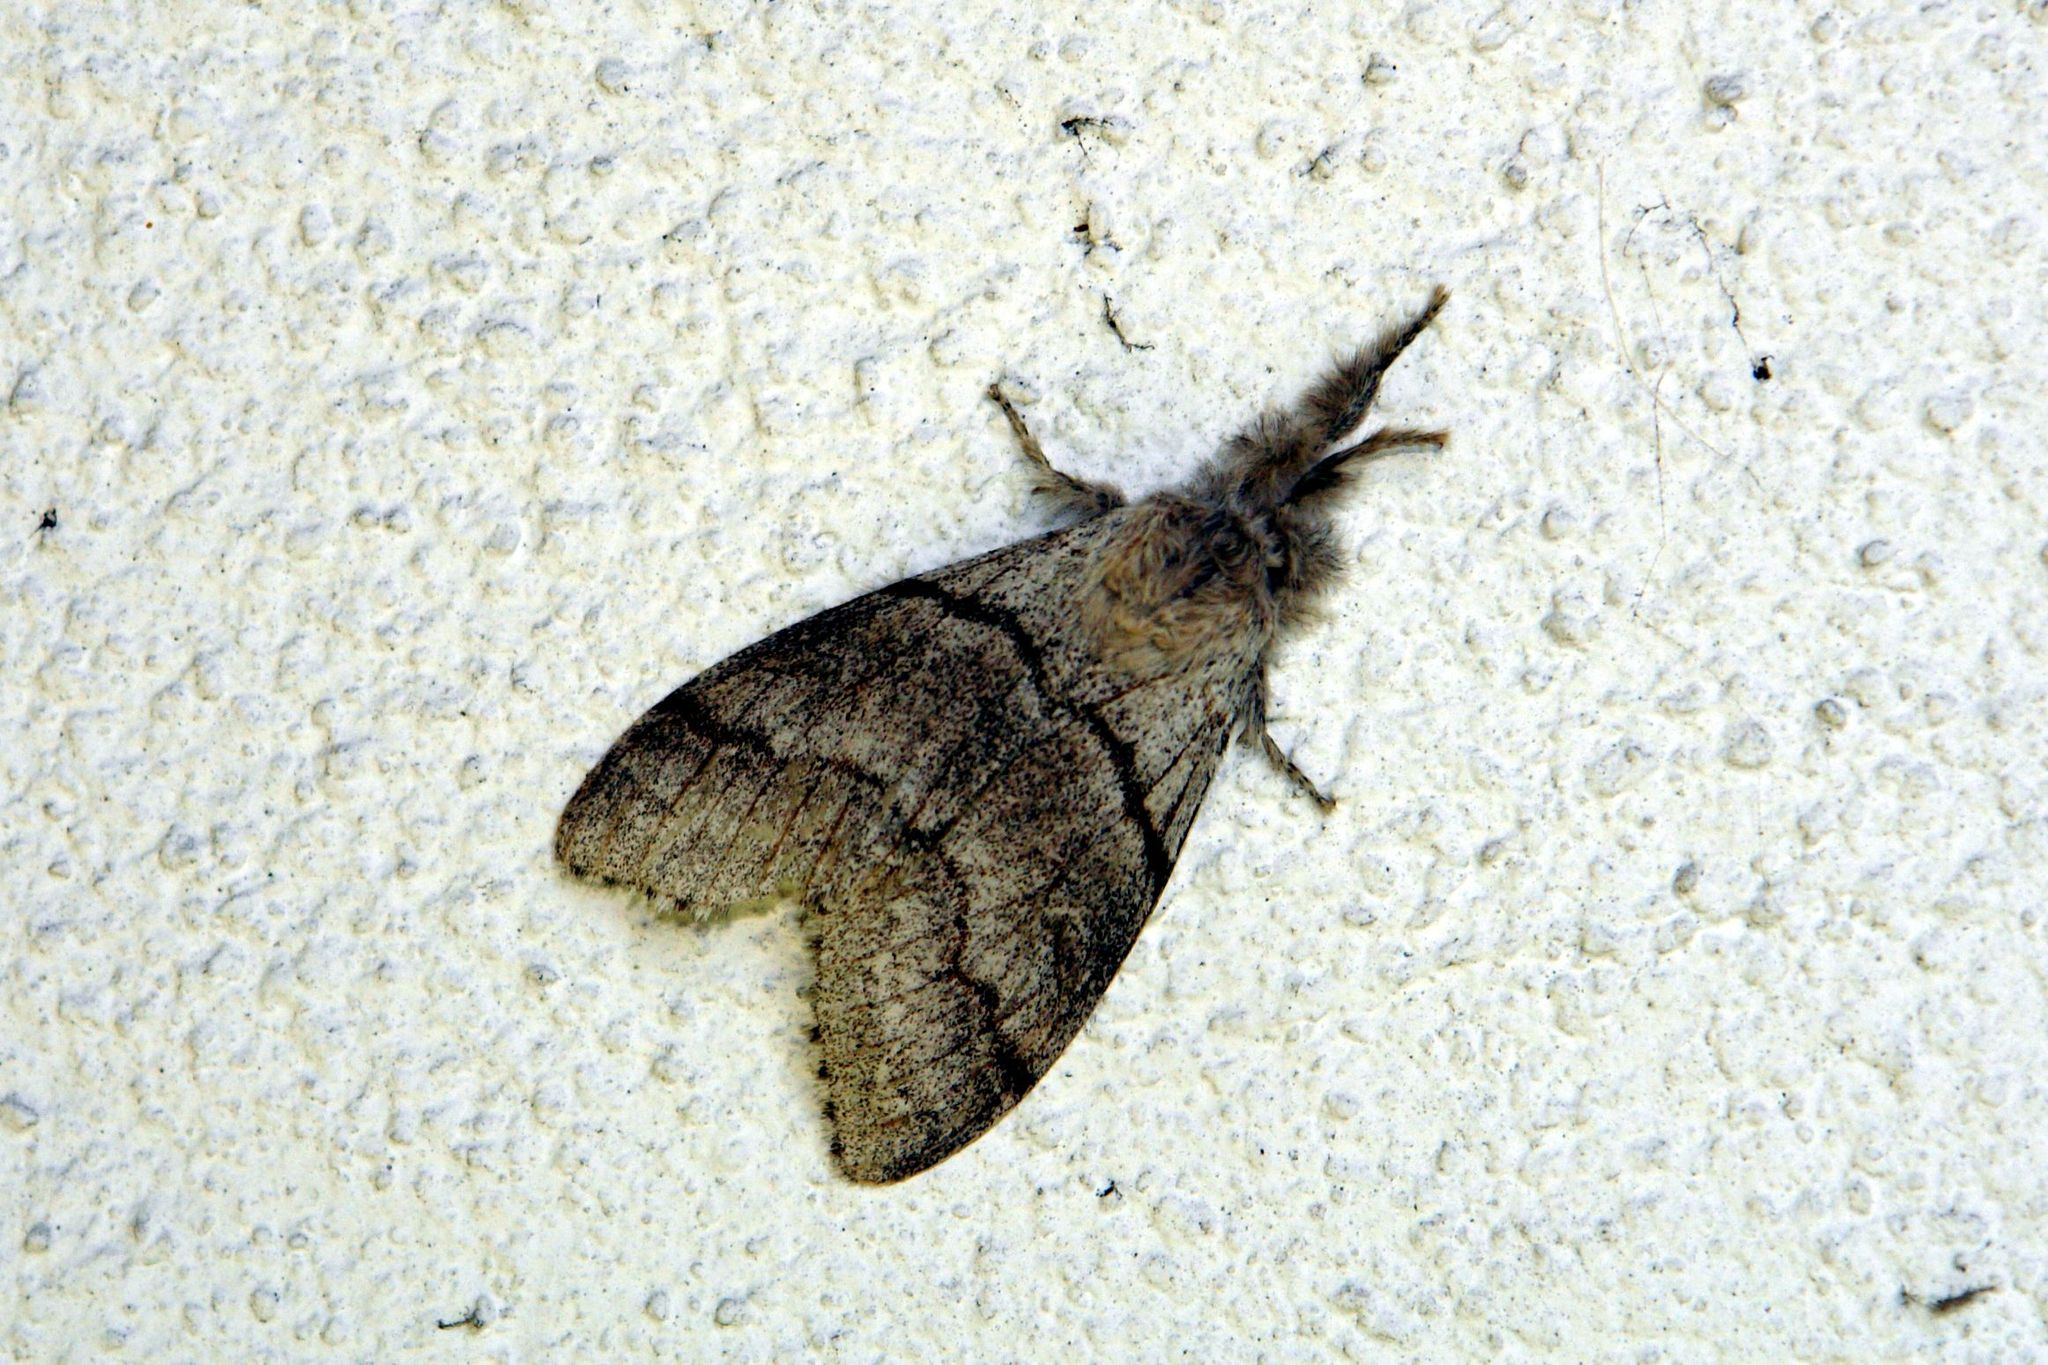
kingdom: Animalia
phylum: Arthropoda
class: Insecta
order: Lepidoptera
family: Erebidae
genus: Calliteara
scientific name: Calliteara pudibunda
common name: Pale tussock
